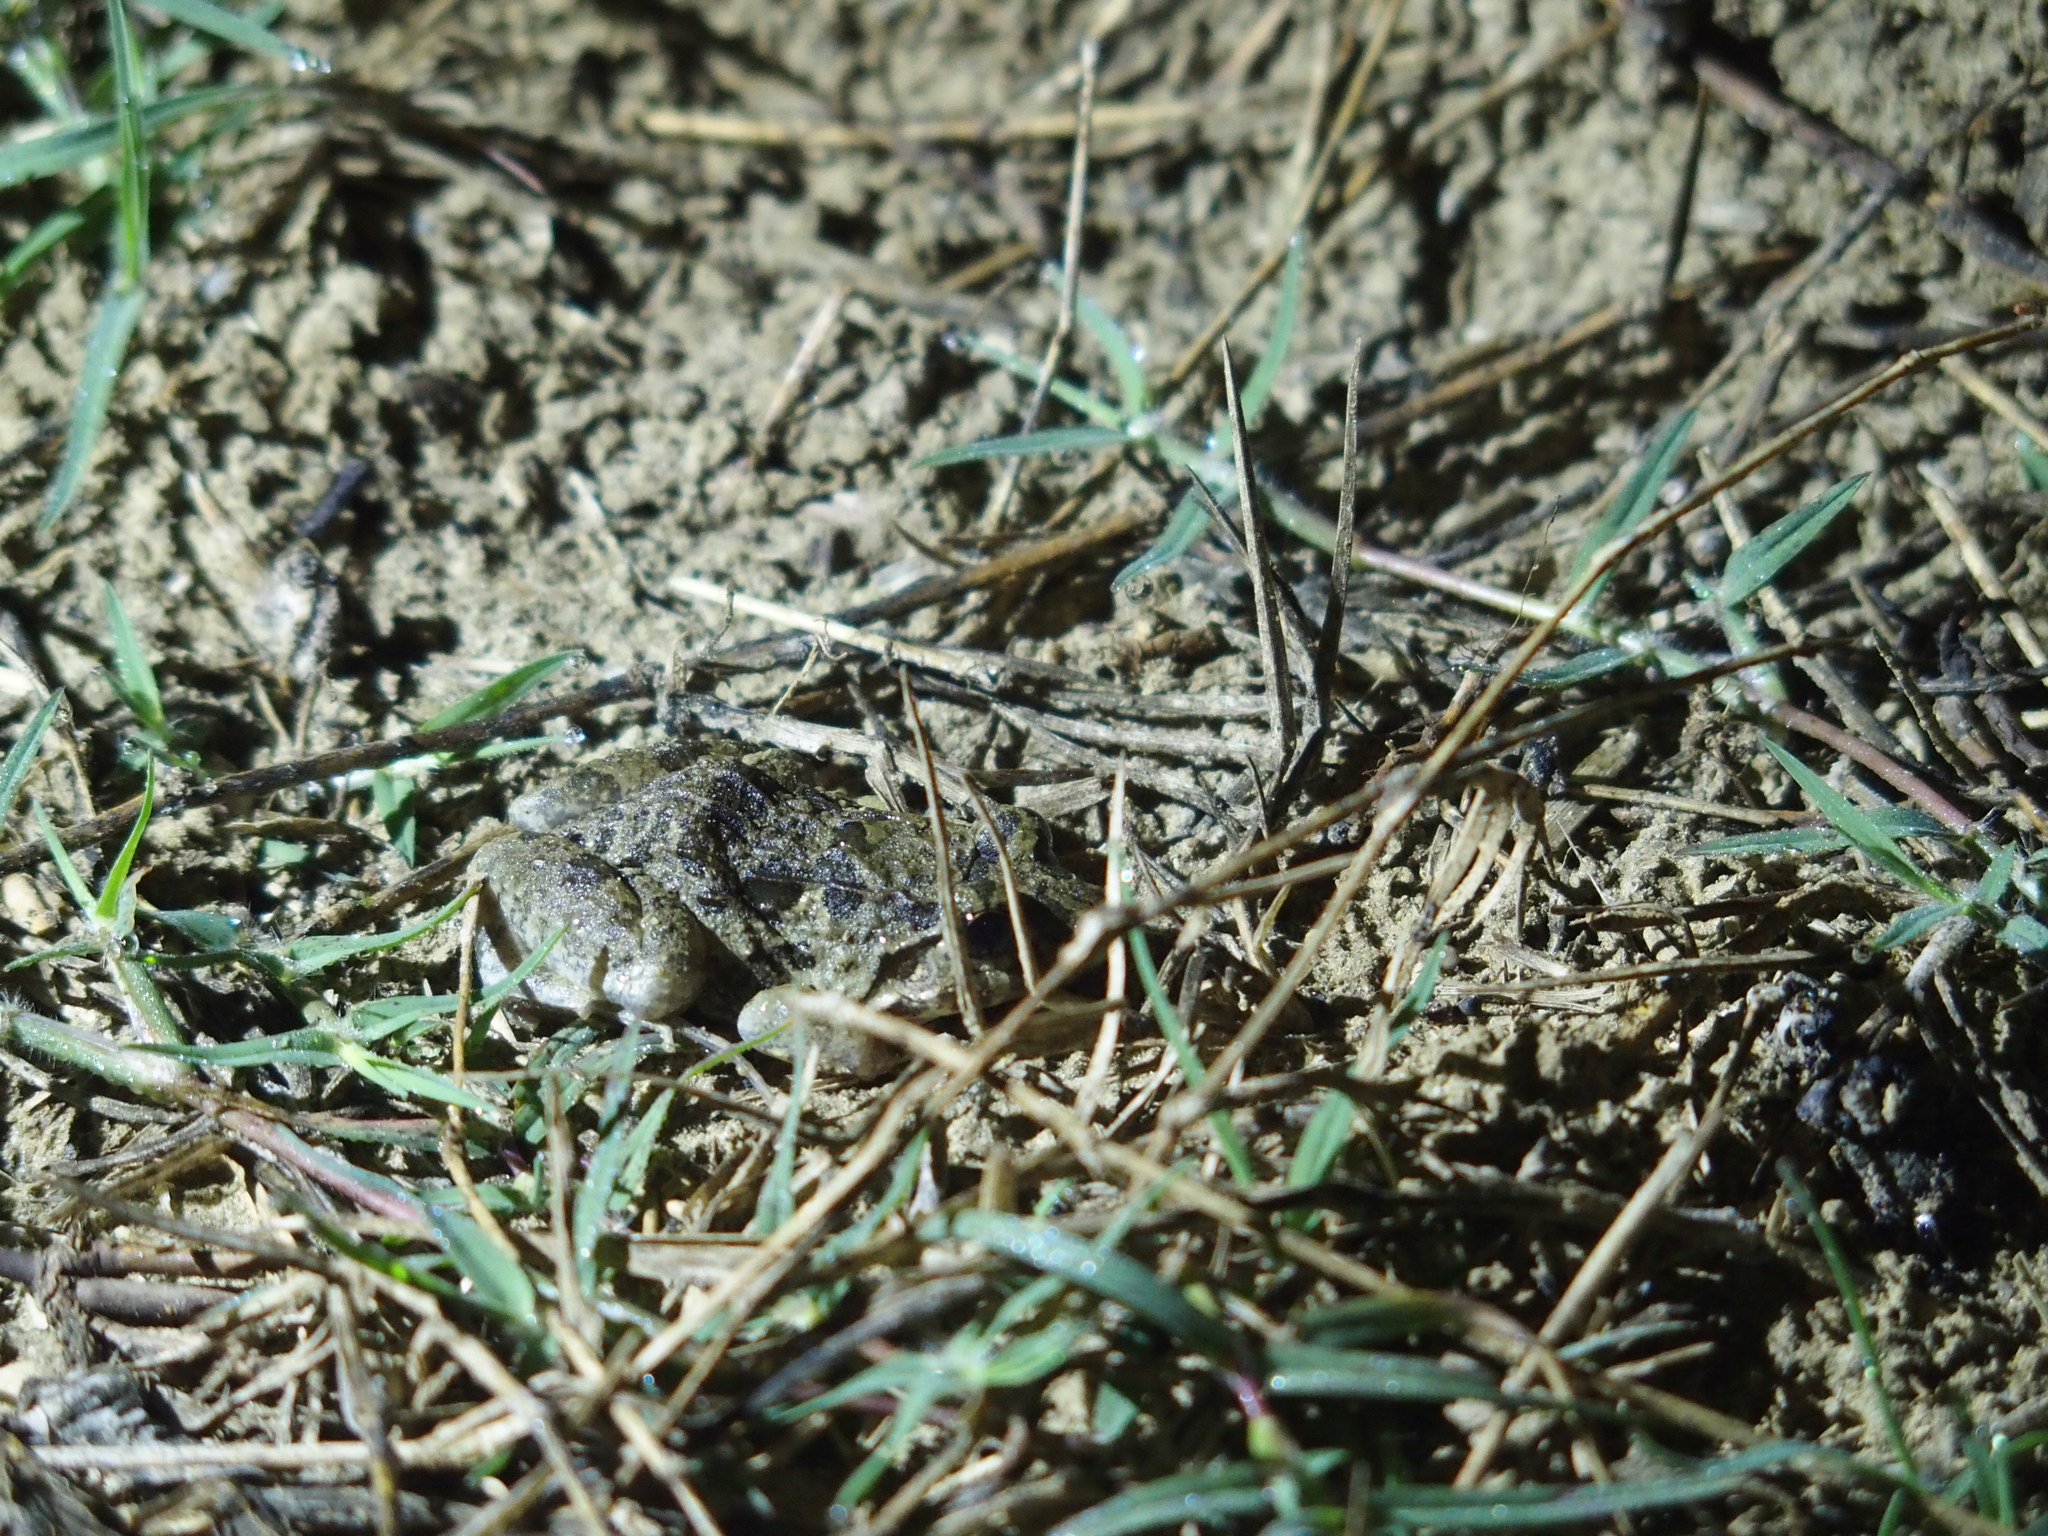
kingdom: Animalia
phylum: Chordata
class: Amphibia
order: Anura
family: Dicroglossidae
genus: Fejervarya
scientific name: Fejervarya limnocharis
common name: Asian grass frog/common pond frog/field frog/grass frog/indian rice frog
